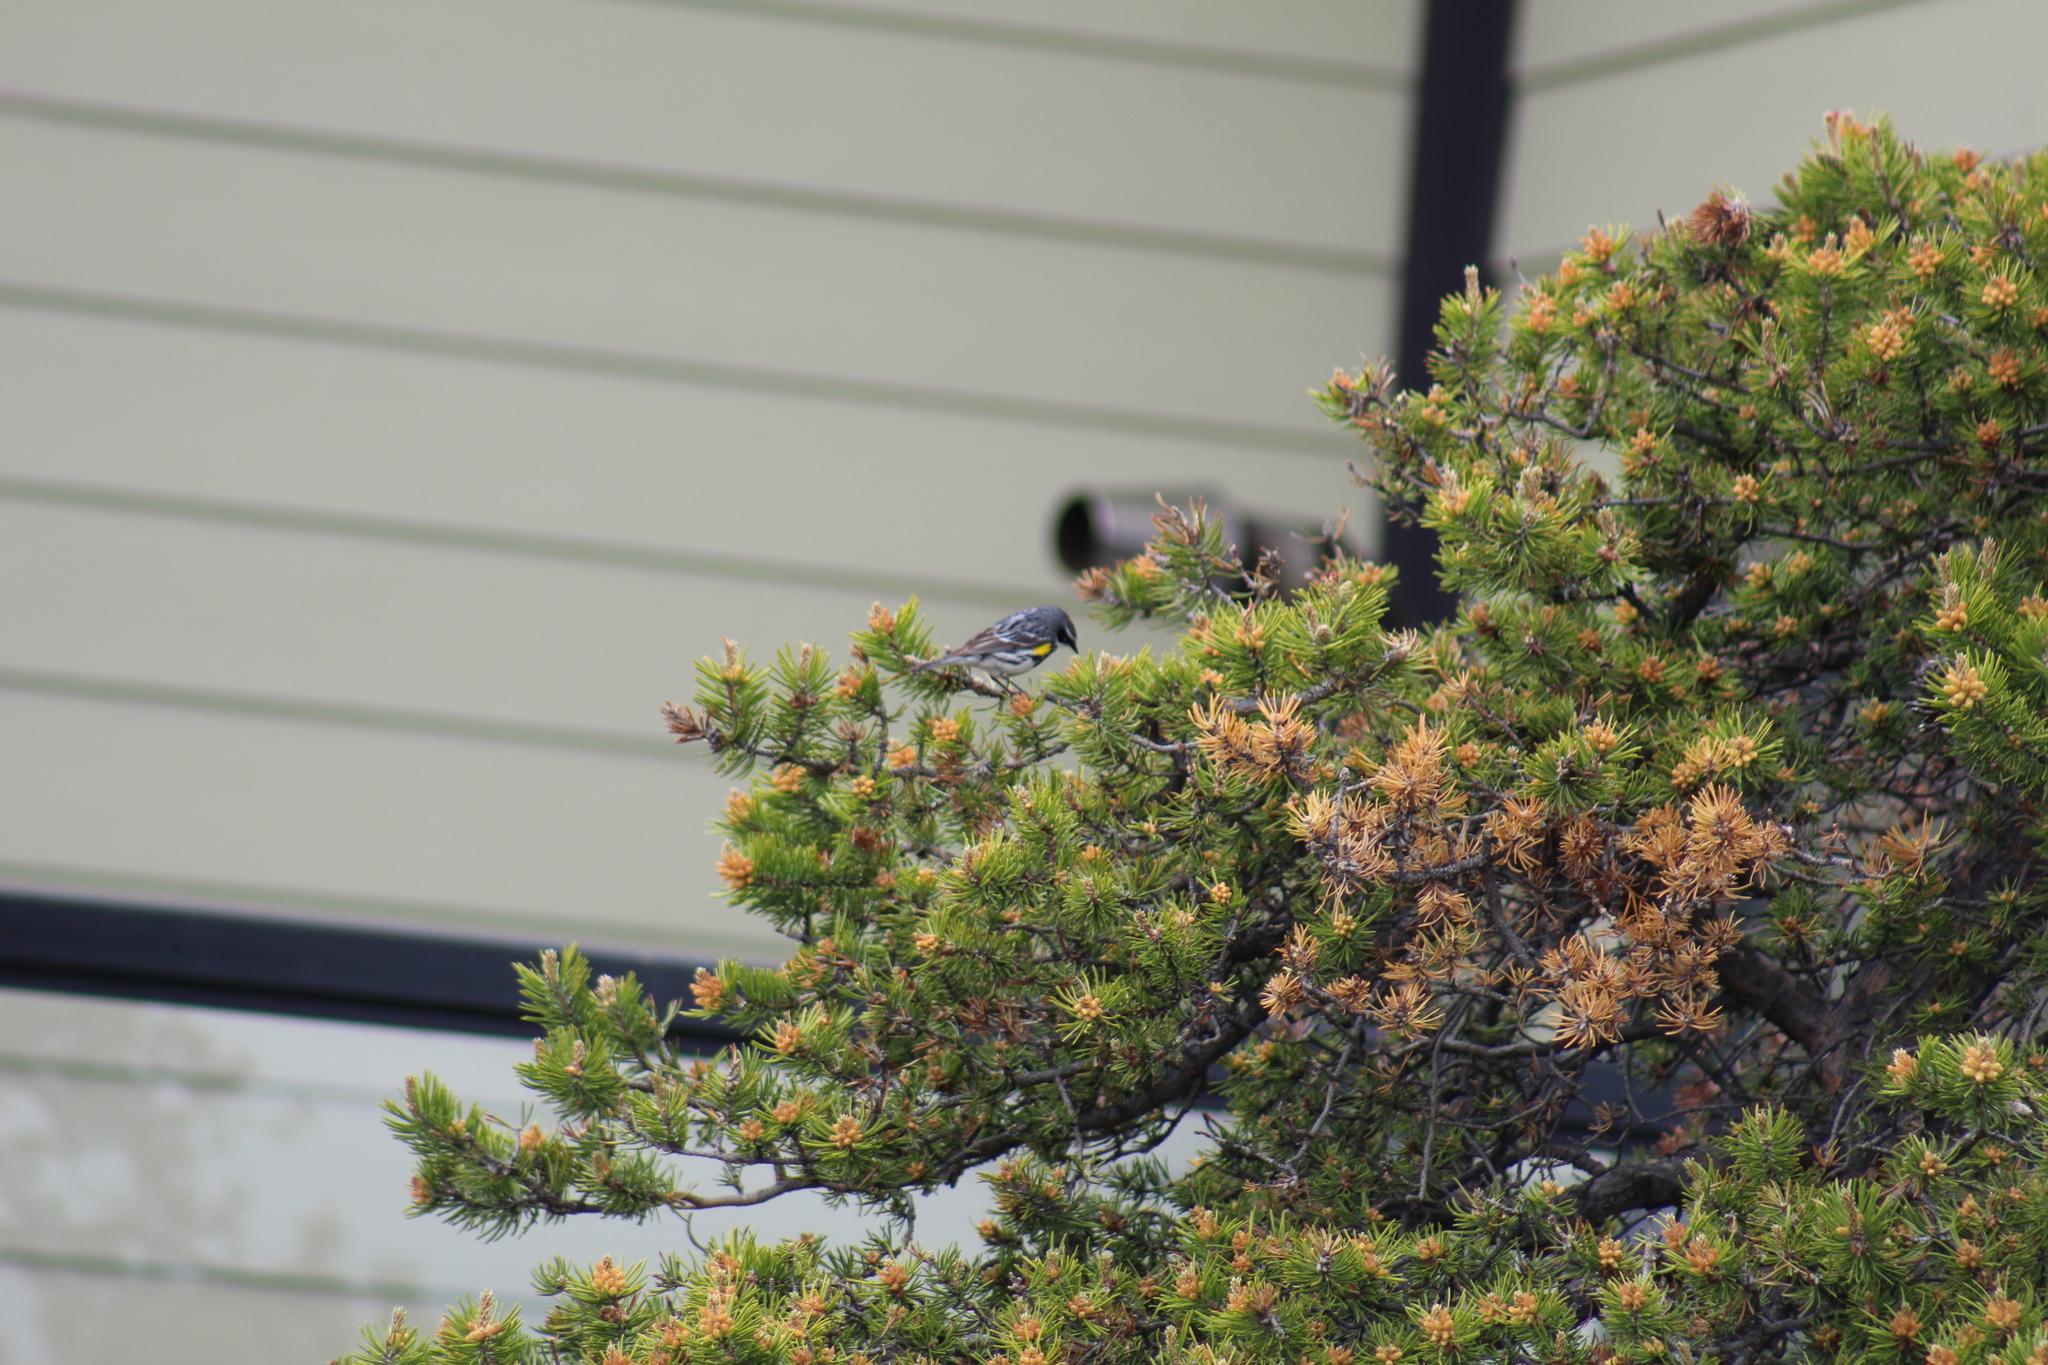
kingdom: Animalia
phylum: Chordata
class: Aves
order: Passeriformes
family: Parulidae
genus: Setophaga
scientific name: Setophaga coronata
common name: Myrtle warbler
